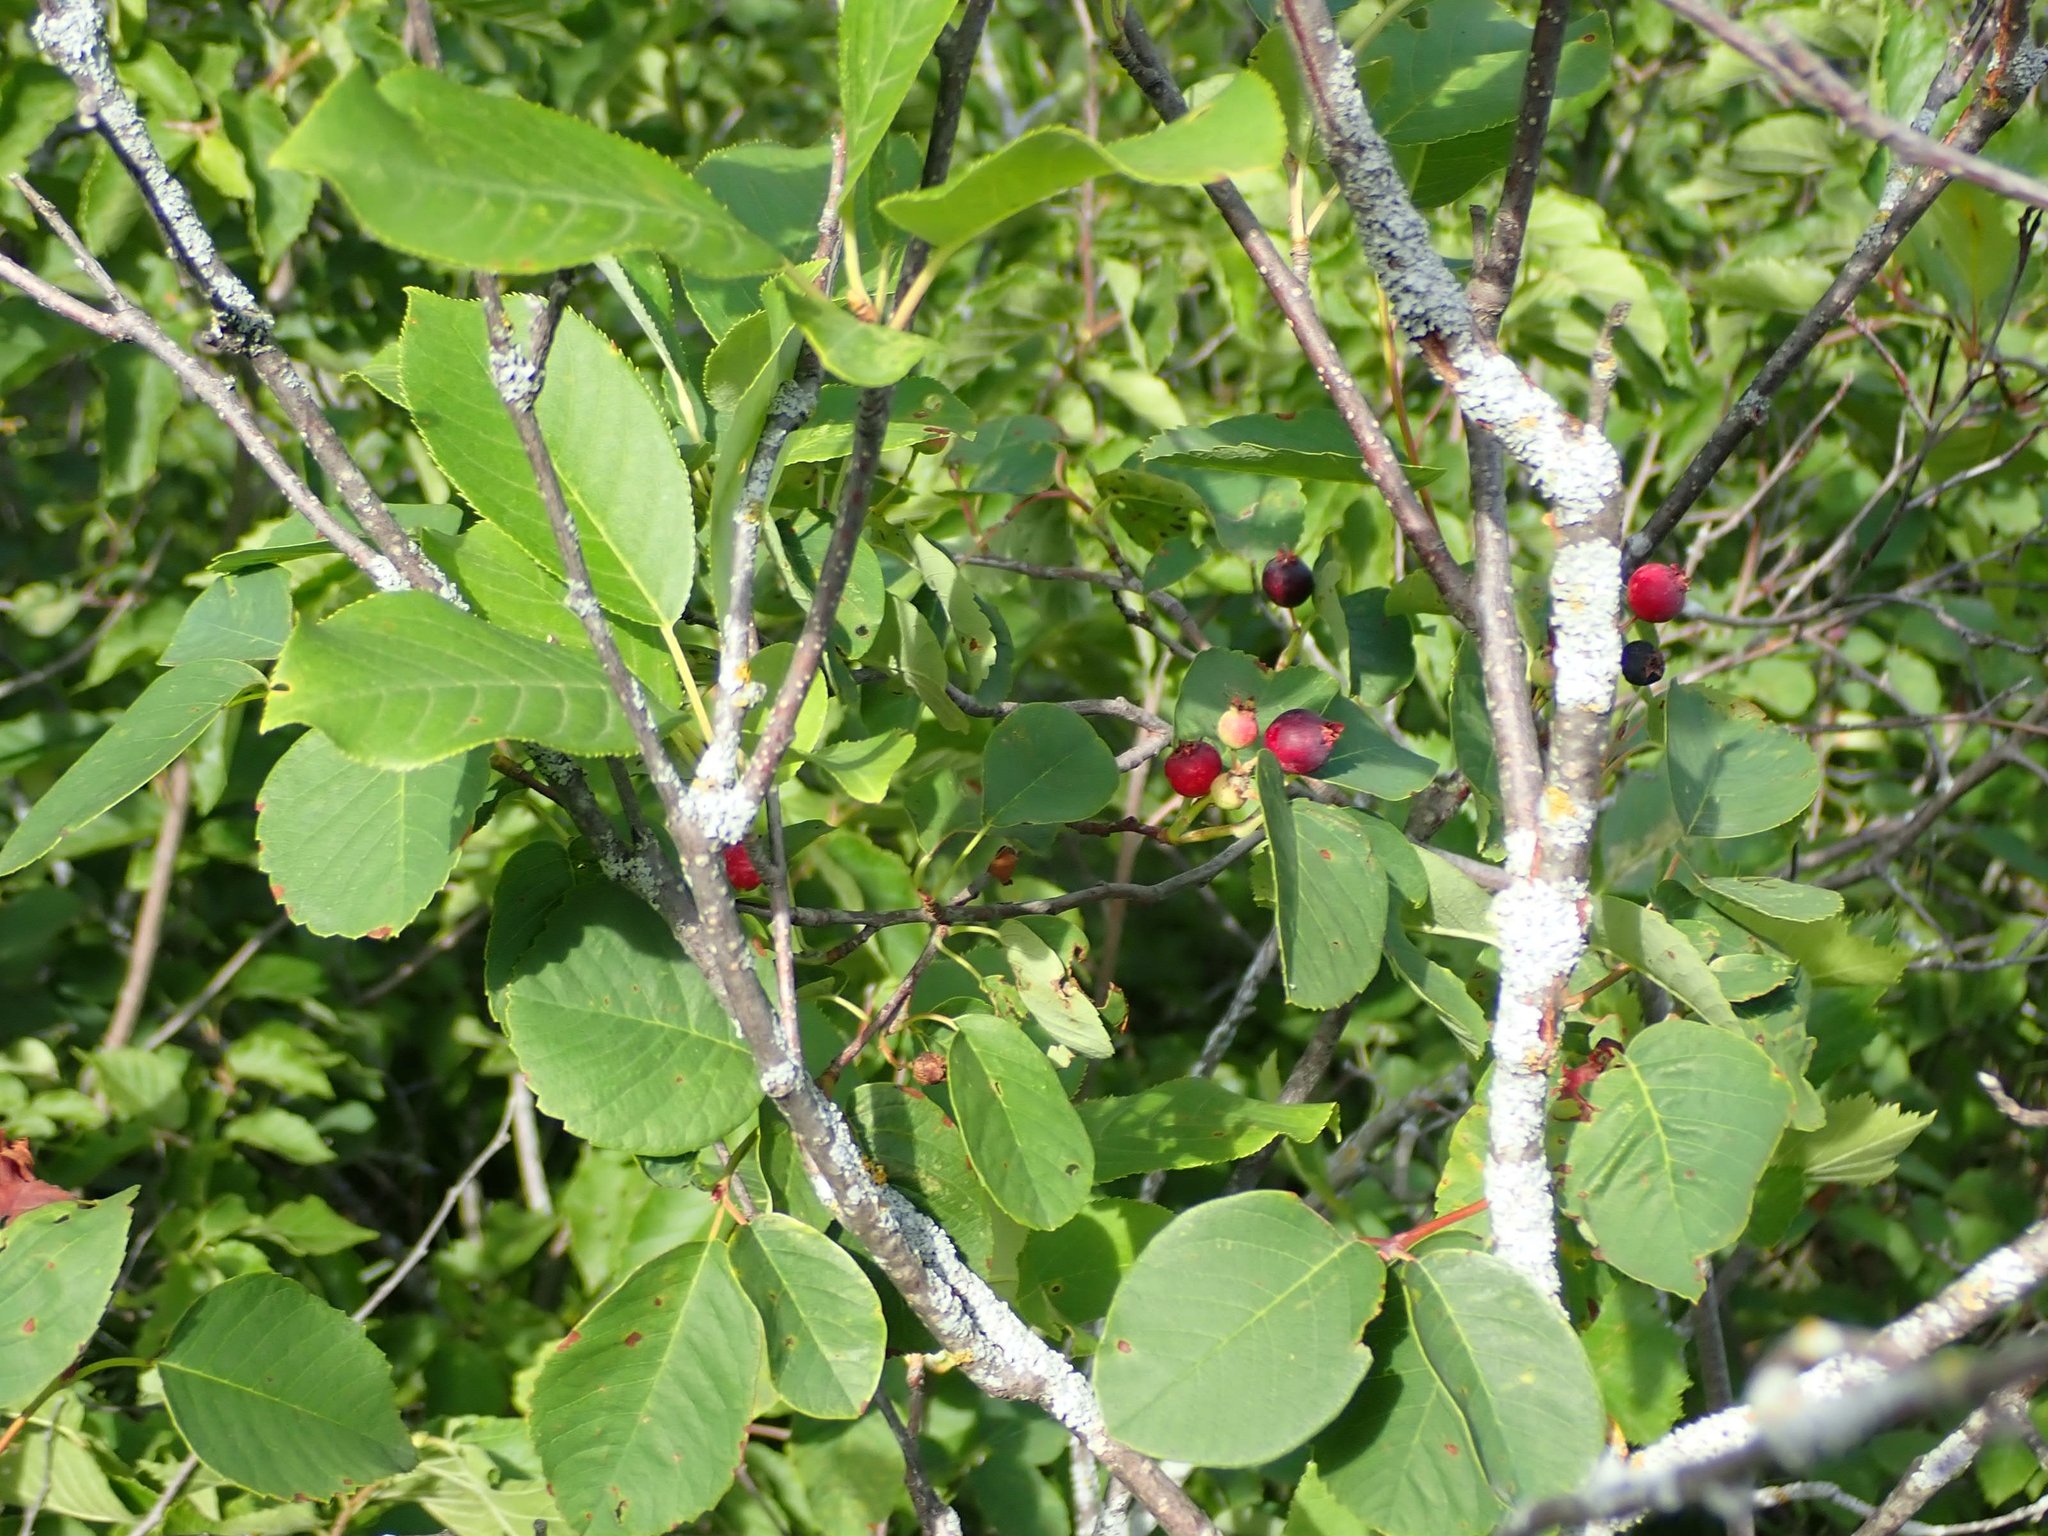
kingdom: Plantae
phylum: Tracheophyta
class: Magnoliopsida
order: Rosales
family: Rosaceae
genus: Amelanchier
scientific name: Amelanchier alnifolia
